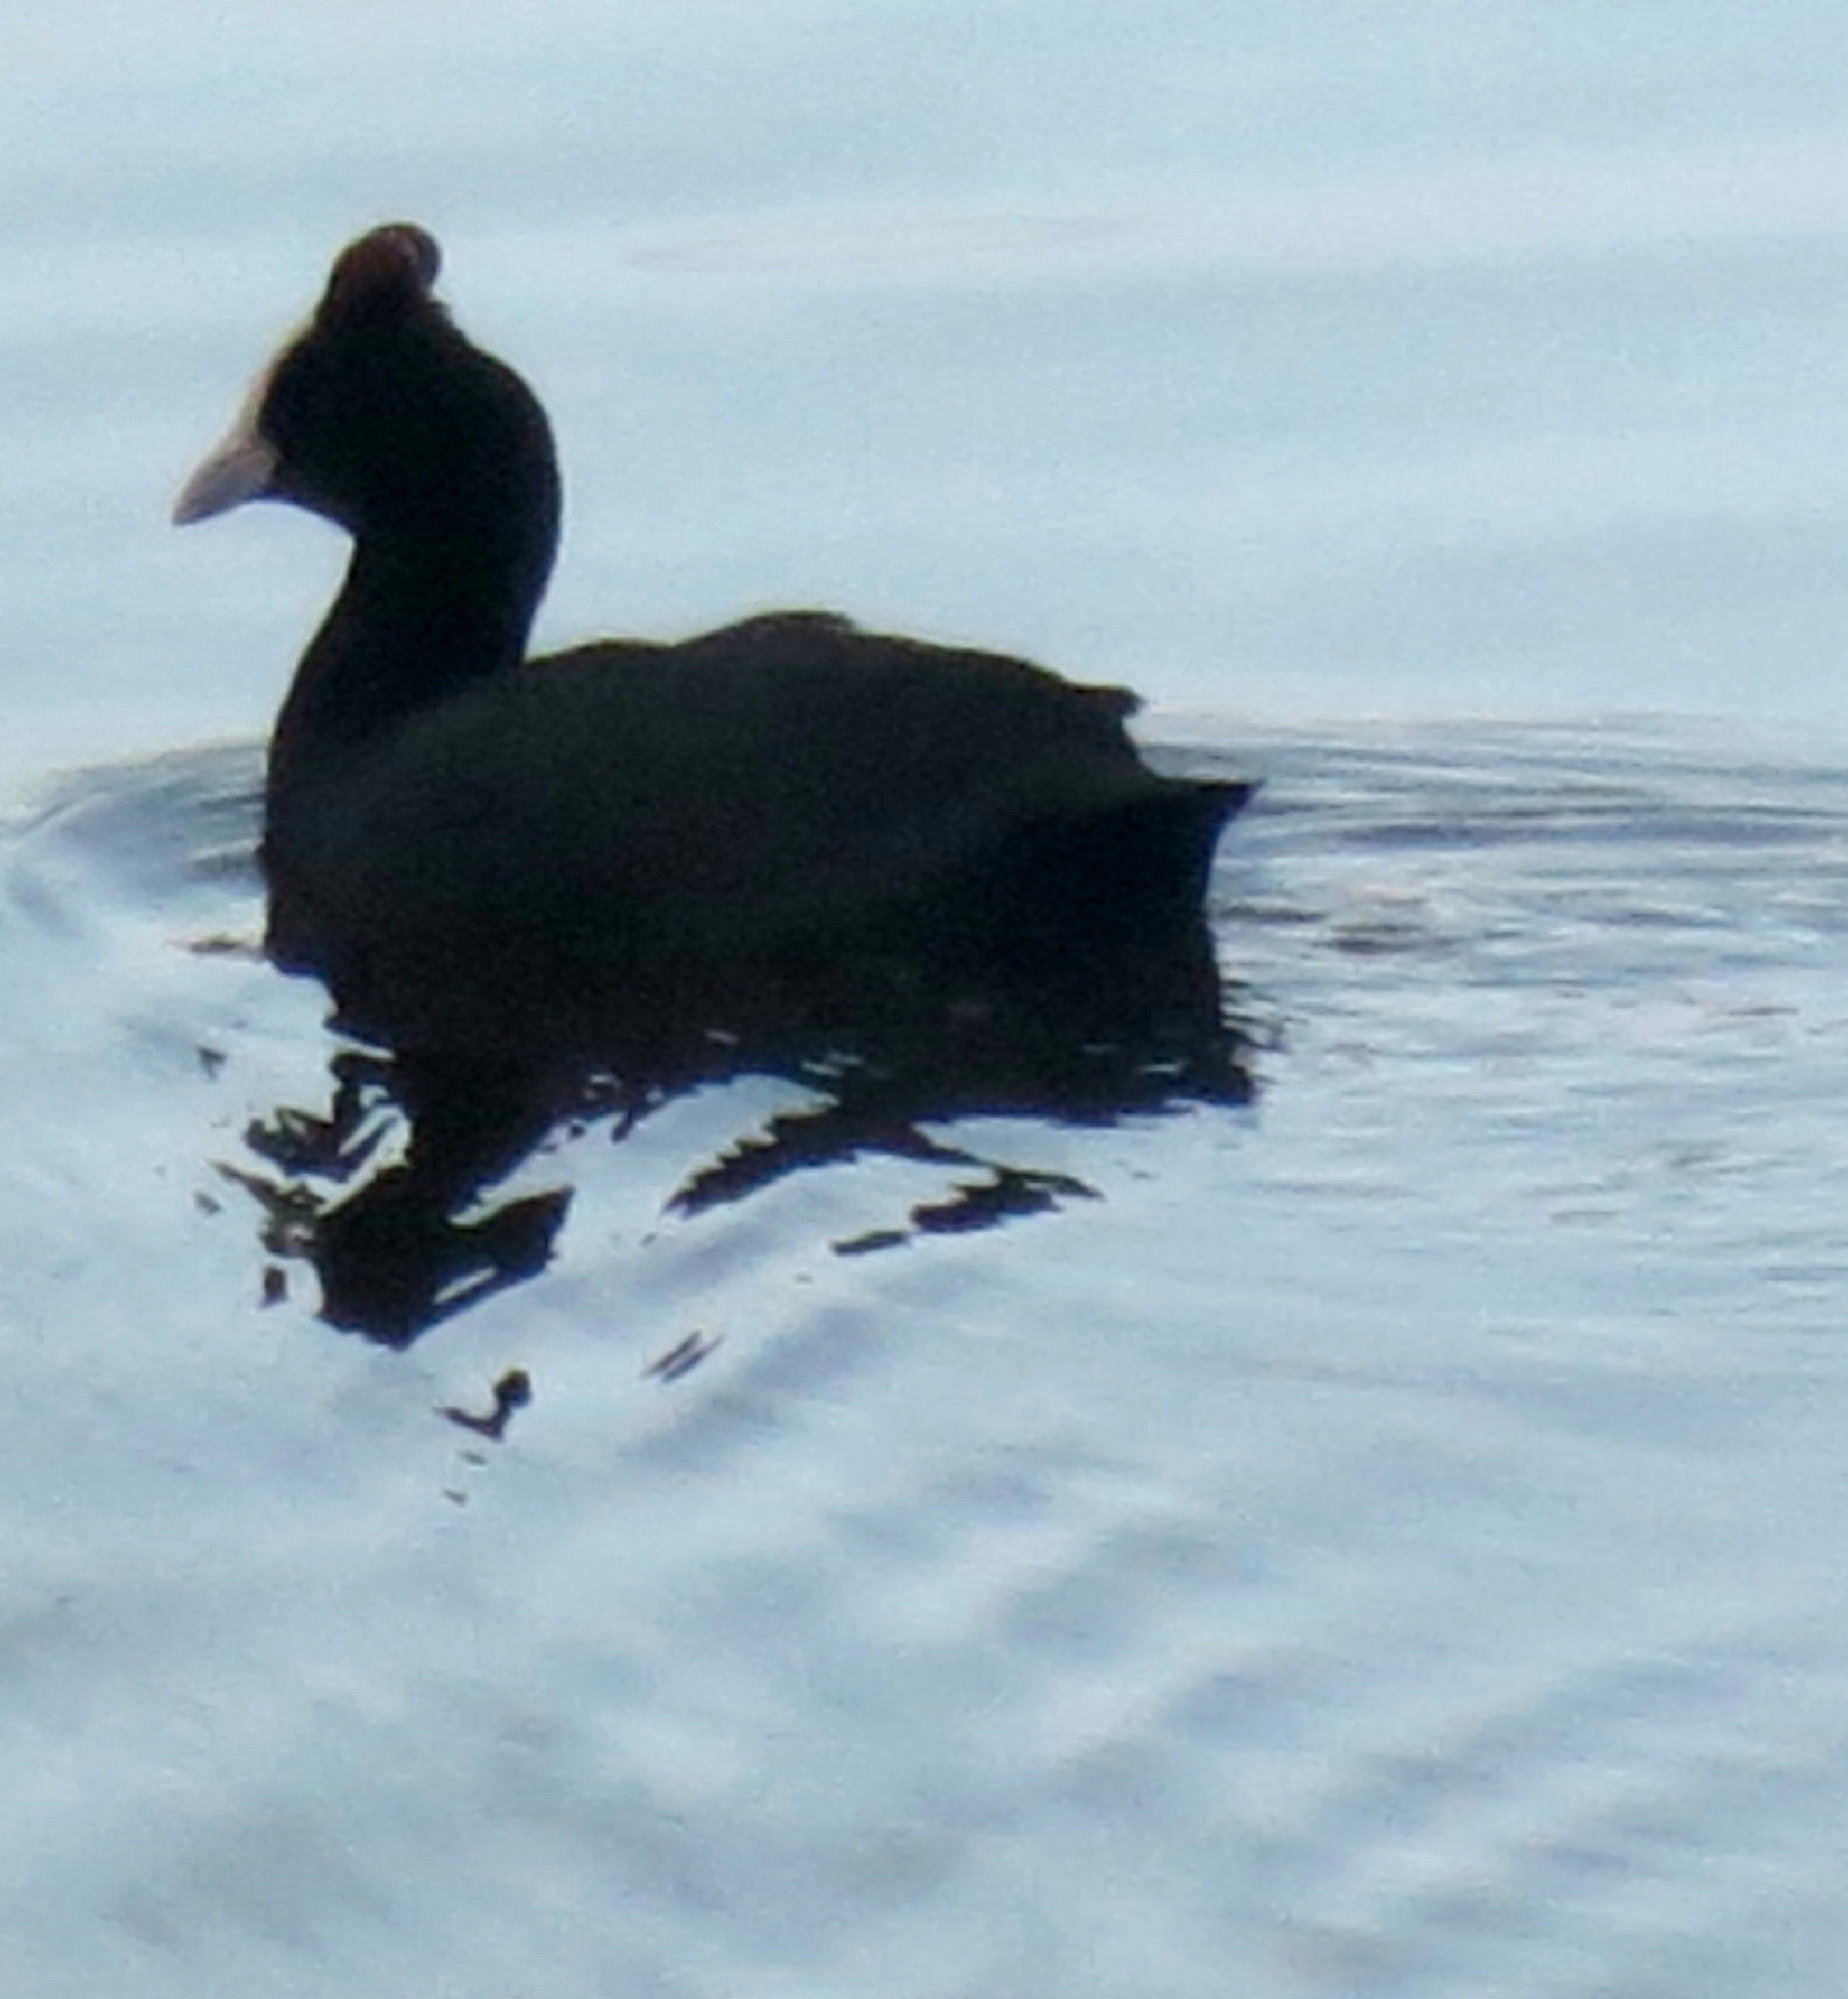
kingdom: Animalia
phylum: Chordata
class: Aves
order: Gruiformes
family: Rallidae
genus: Fulica
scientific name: Fulica cristata
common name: Red-knobbed coot
